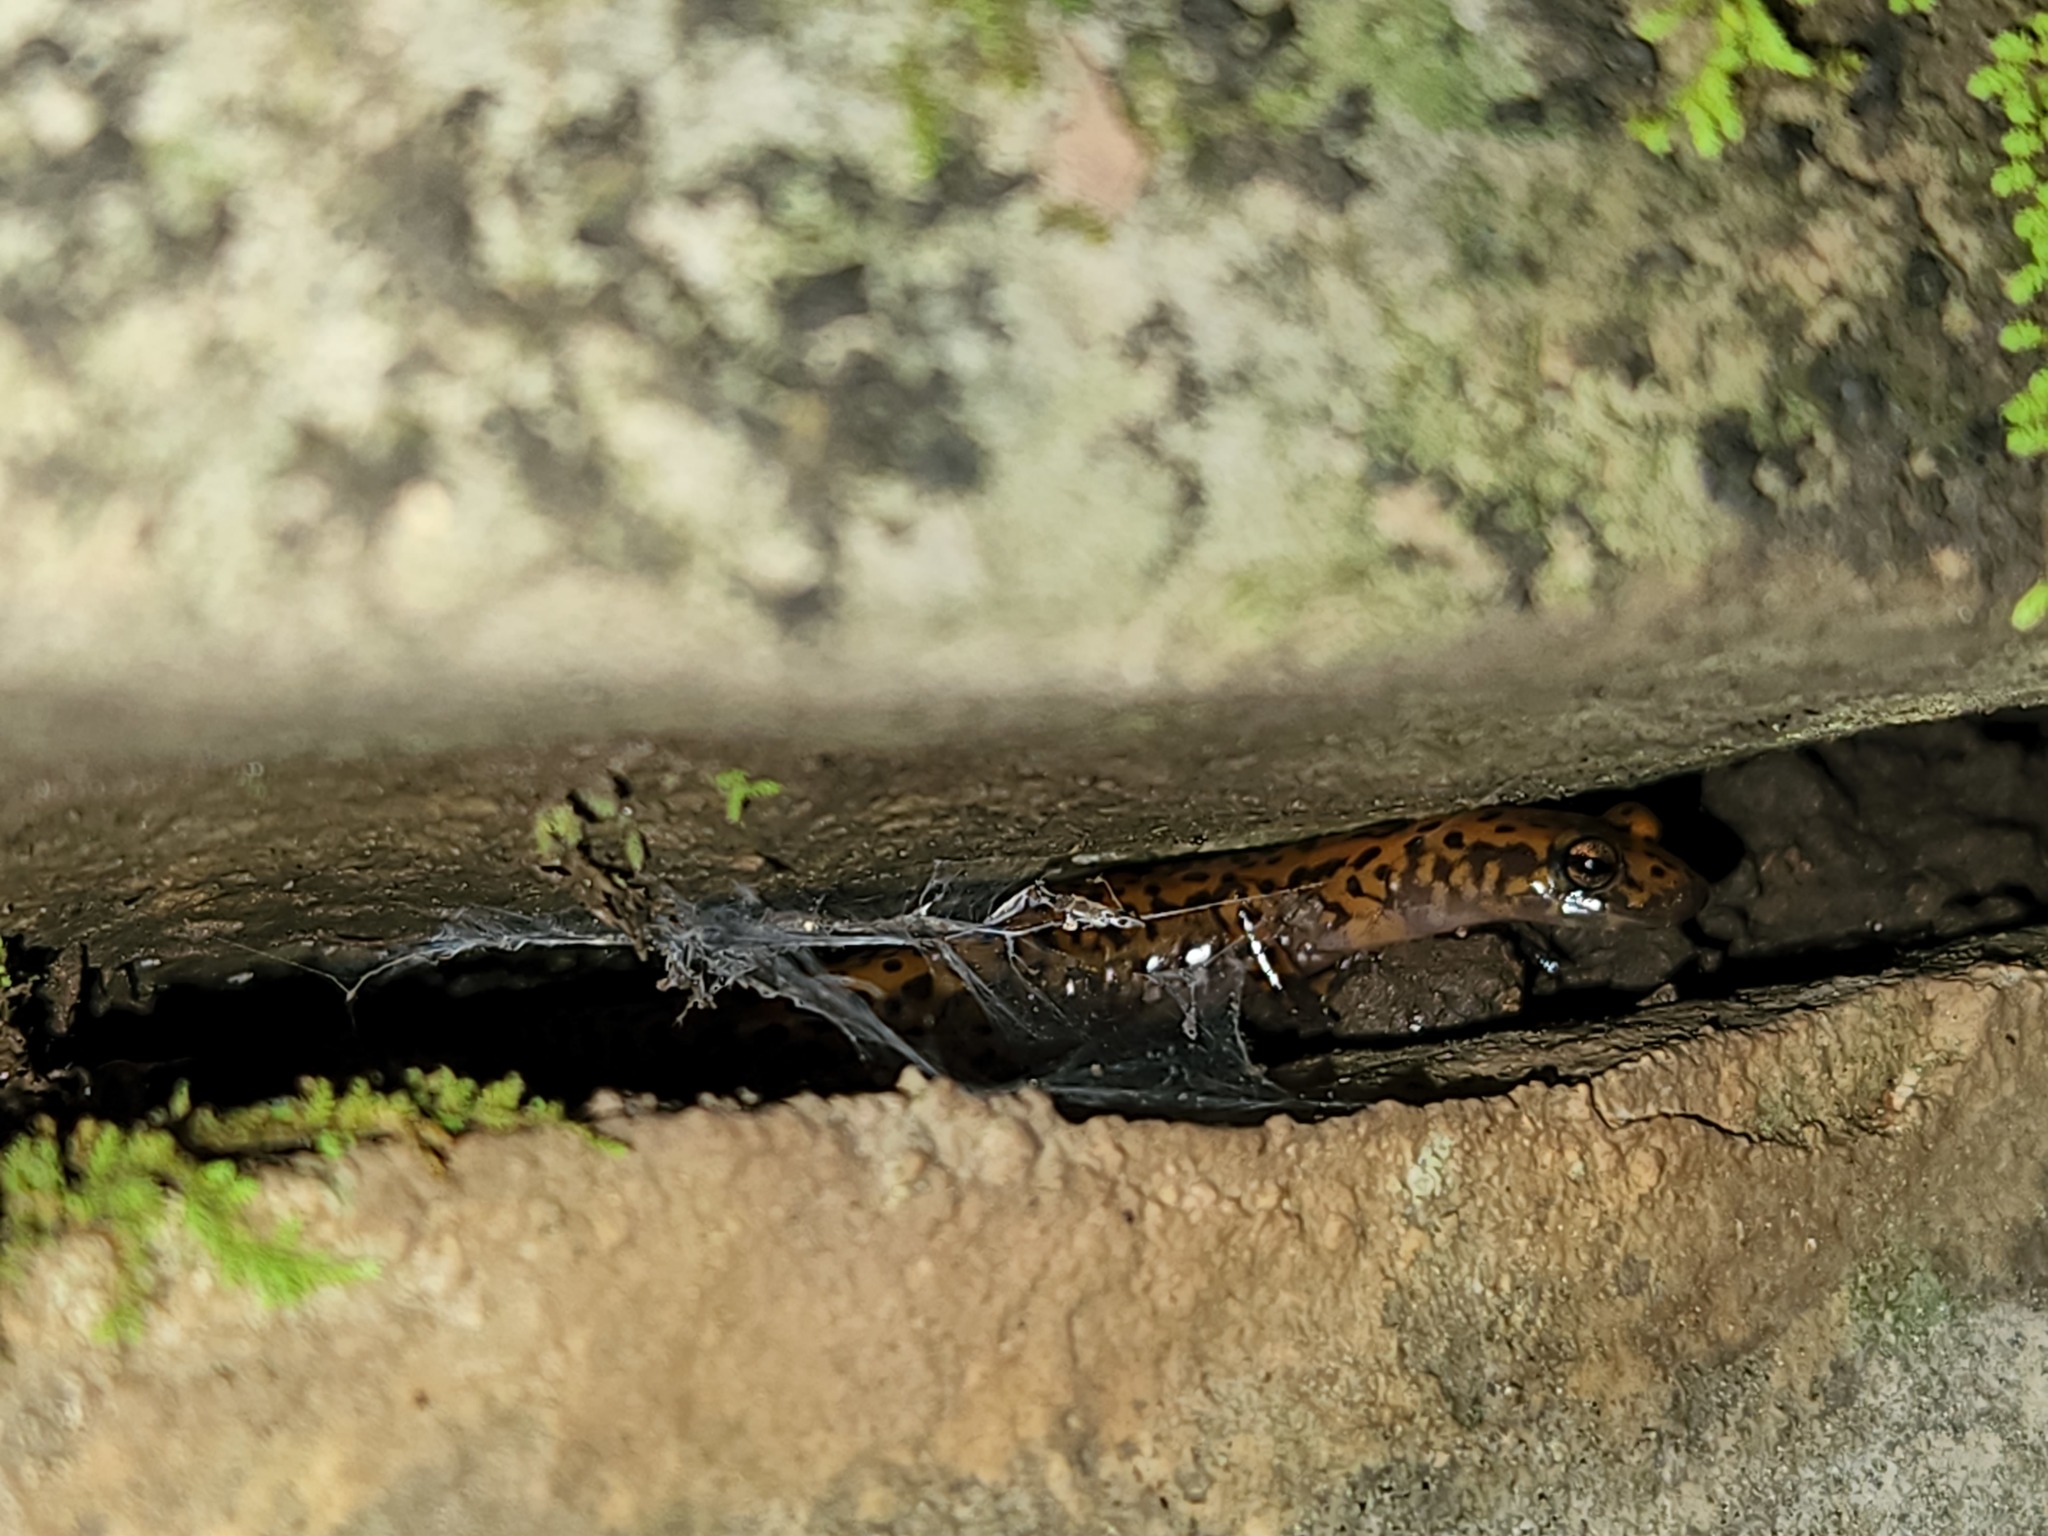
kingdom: Animalia
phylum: Chordata
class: Amphibia
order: Caudata
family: Plethodontidae
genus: Eurycea
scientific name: Eurycea lucifuga
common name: Cave salamander
